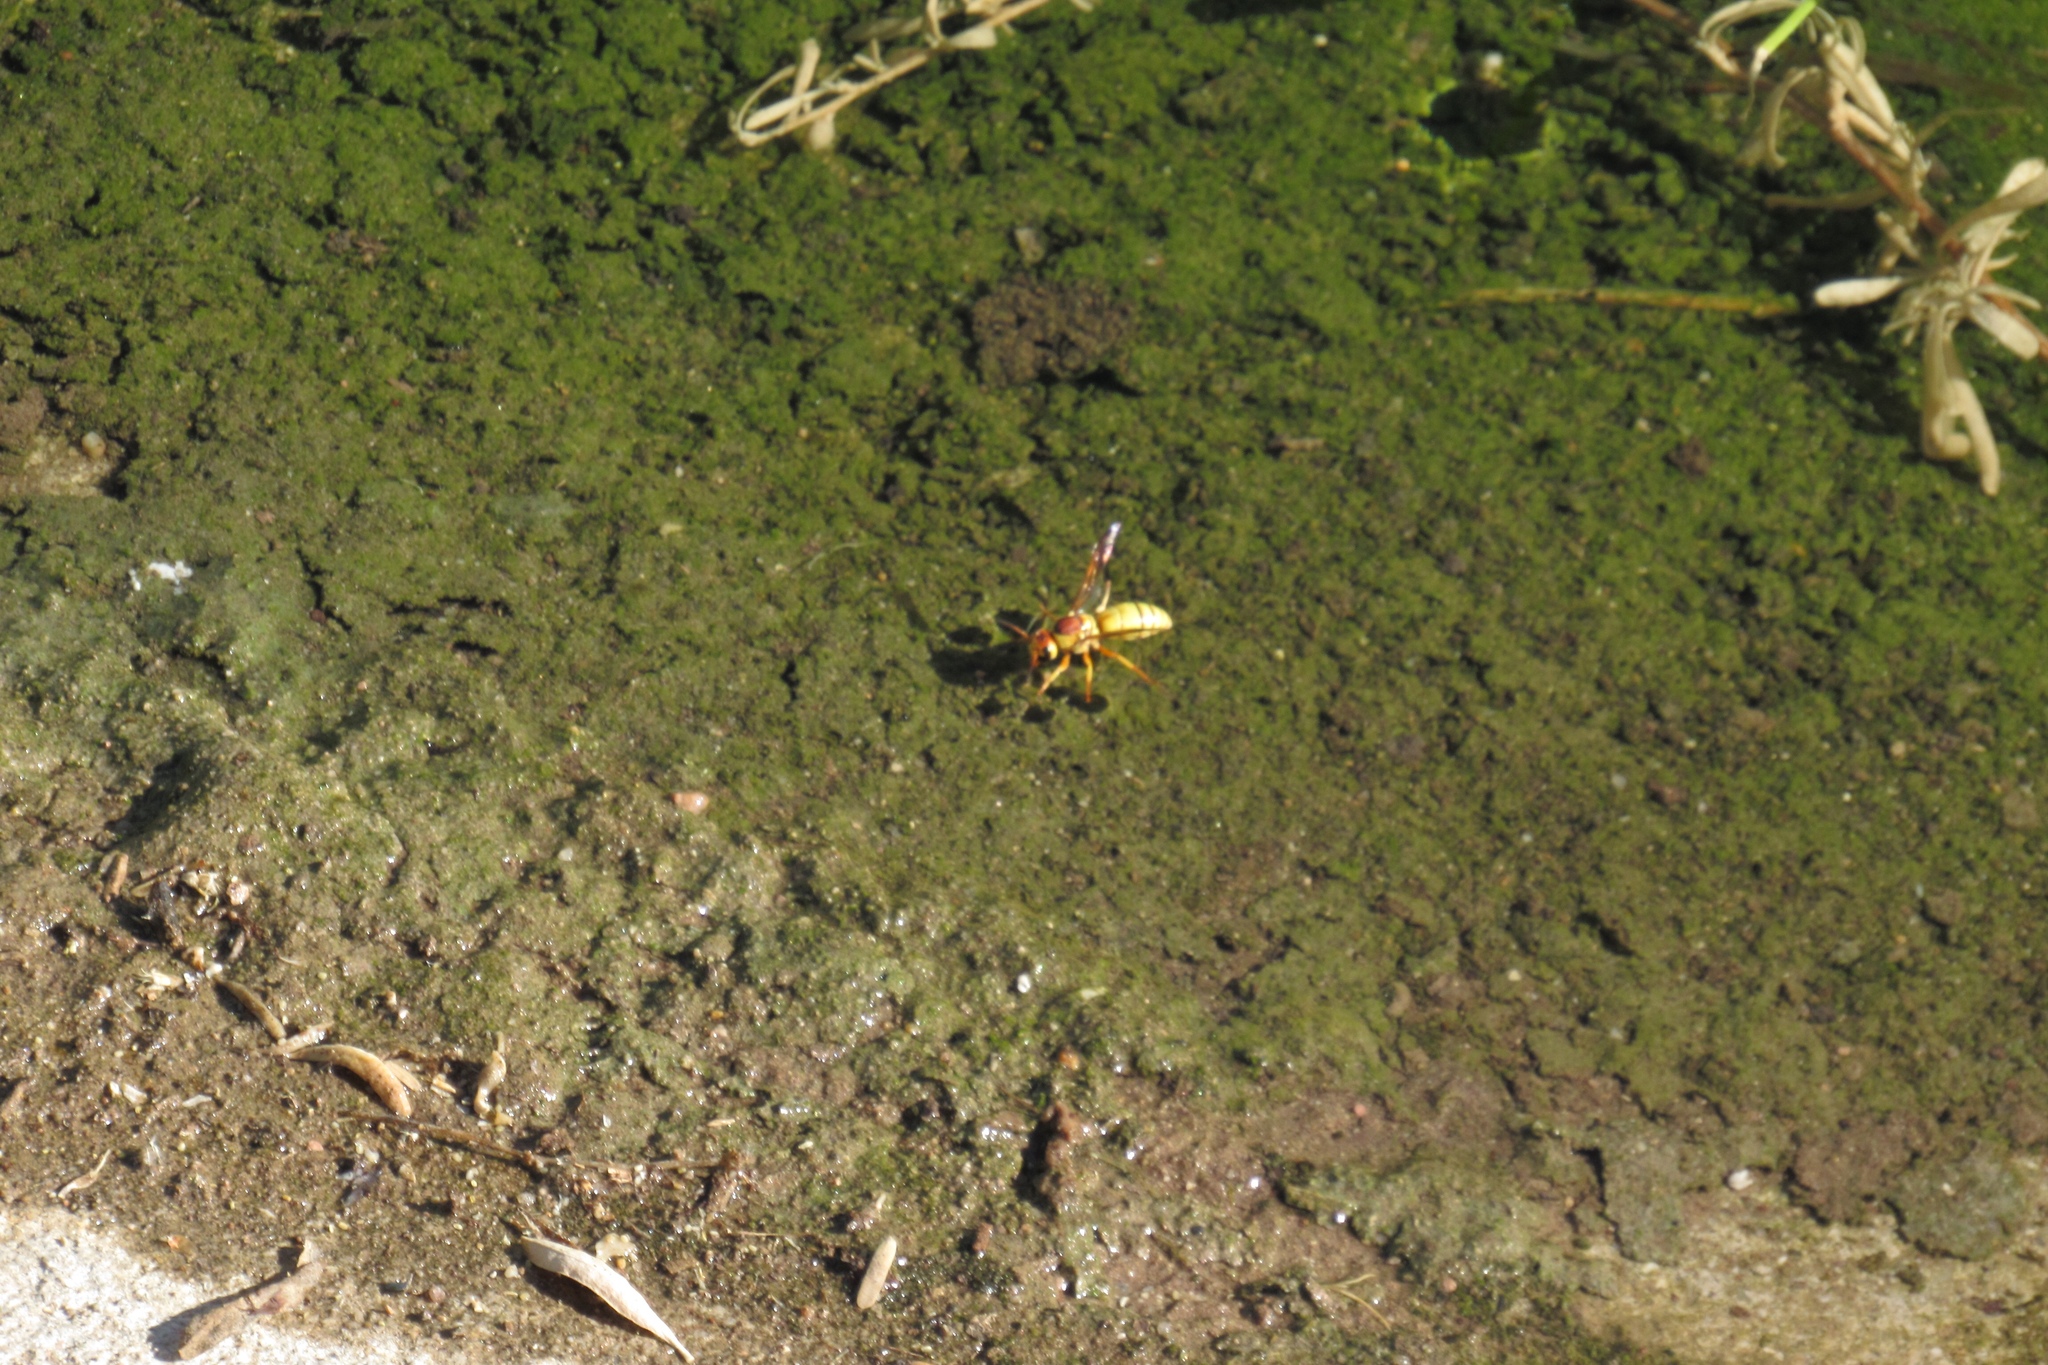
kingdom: Animalia
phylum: Arthropoda
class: Insecta
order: Hymenoptera
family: Eumenidae
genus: Euodynerus
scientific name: Euodynerus annulatus
